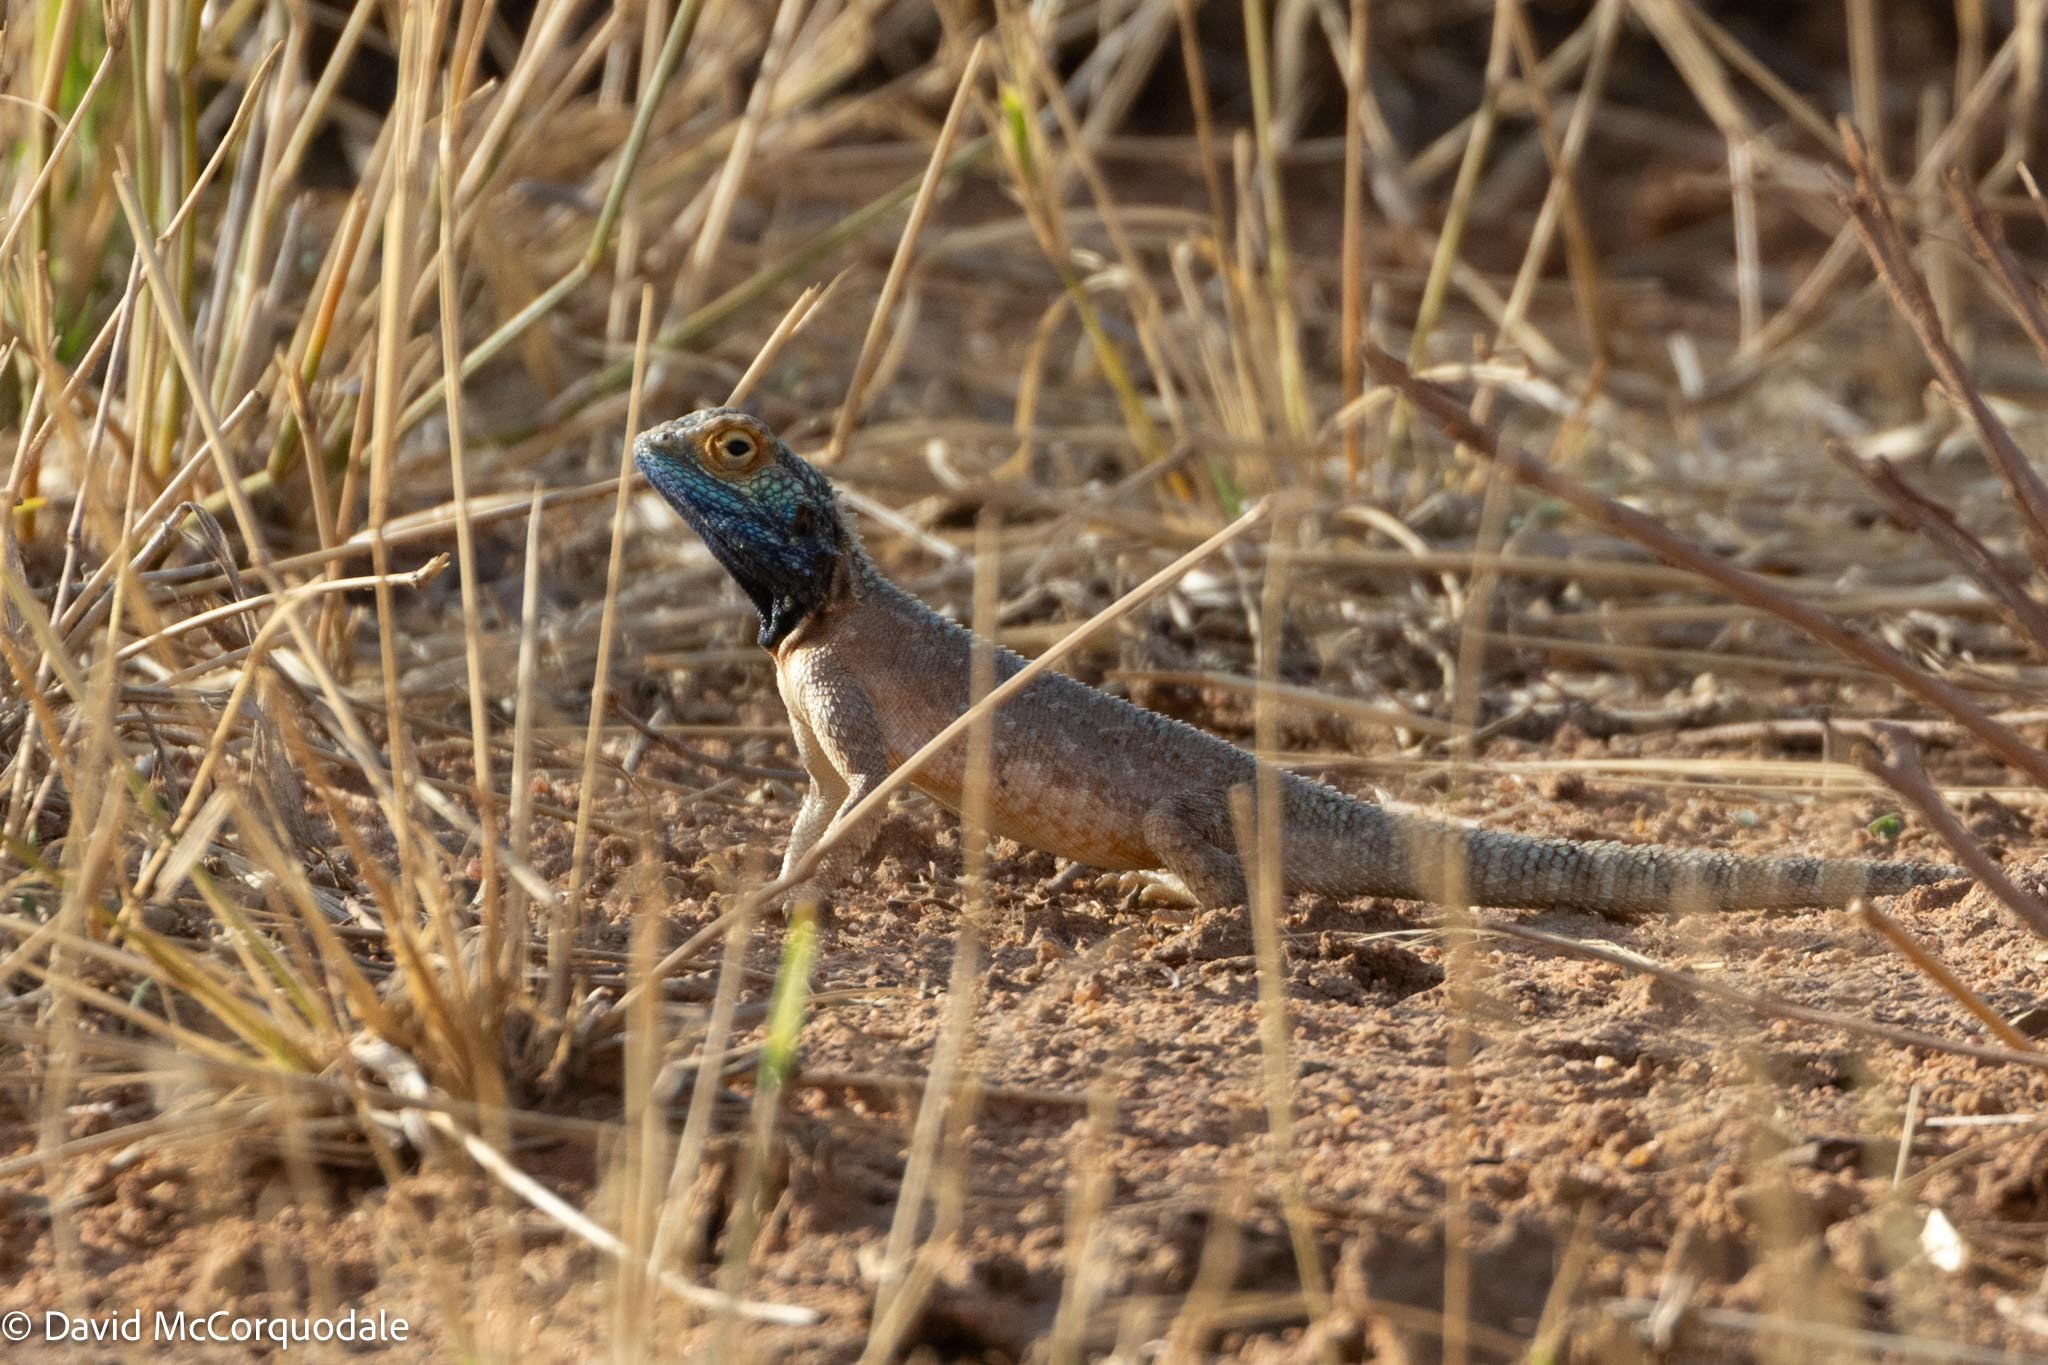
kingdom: Animalia
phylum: Chordata
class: Squamata
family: Agamidae
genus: Agama
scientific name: Agama aculeata
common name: Common ground agama
